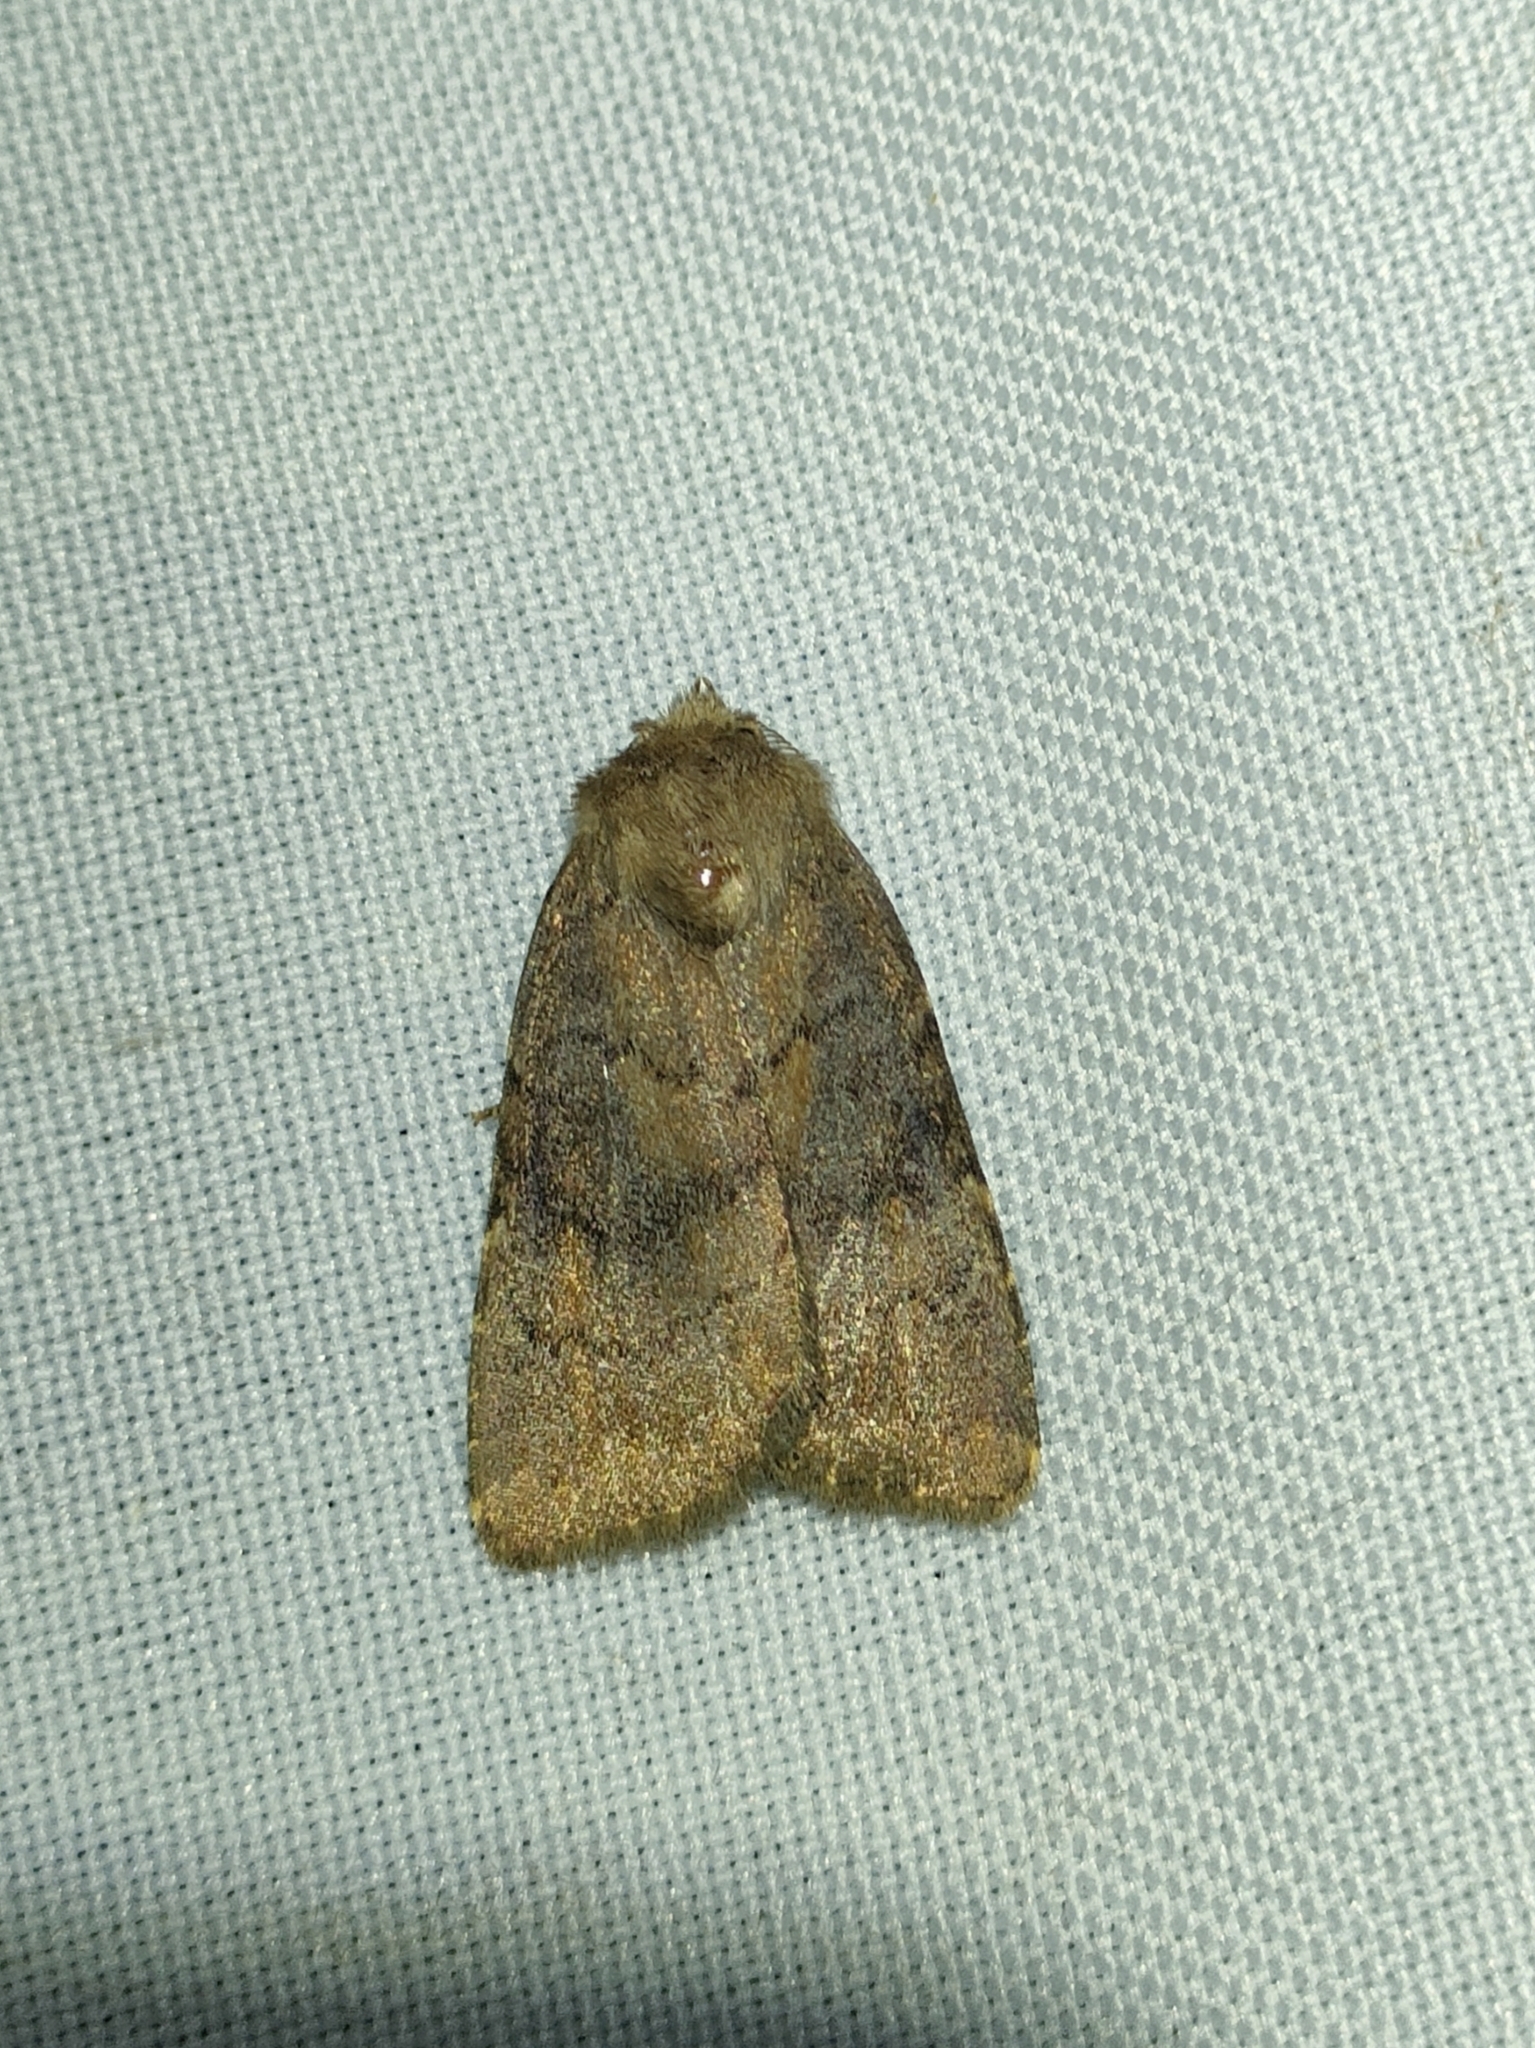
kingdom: Animalia
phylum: Arthropoda
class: Insecta
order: Lepidoptera
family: Noctuidae
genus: Charanyca
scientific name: Charanyca ferruginea
